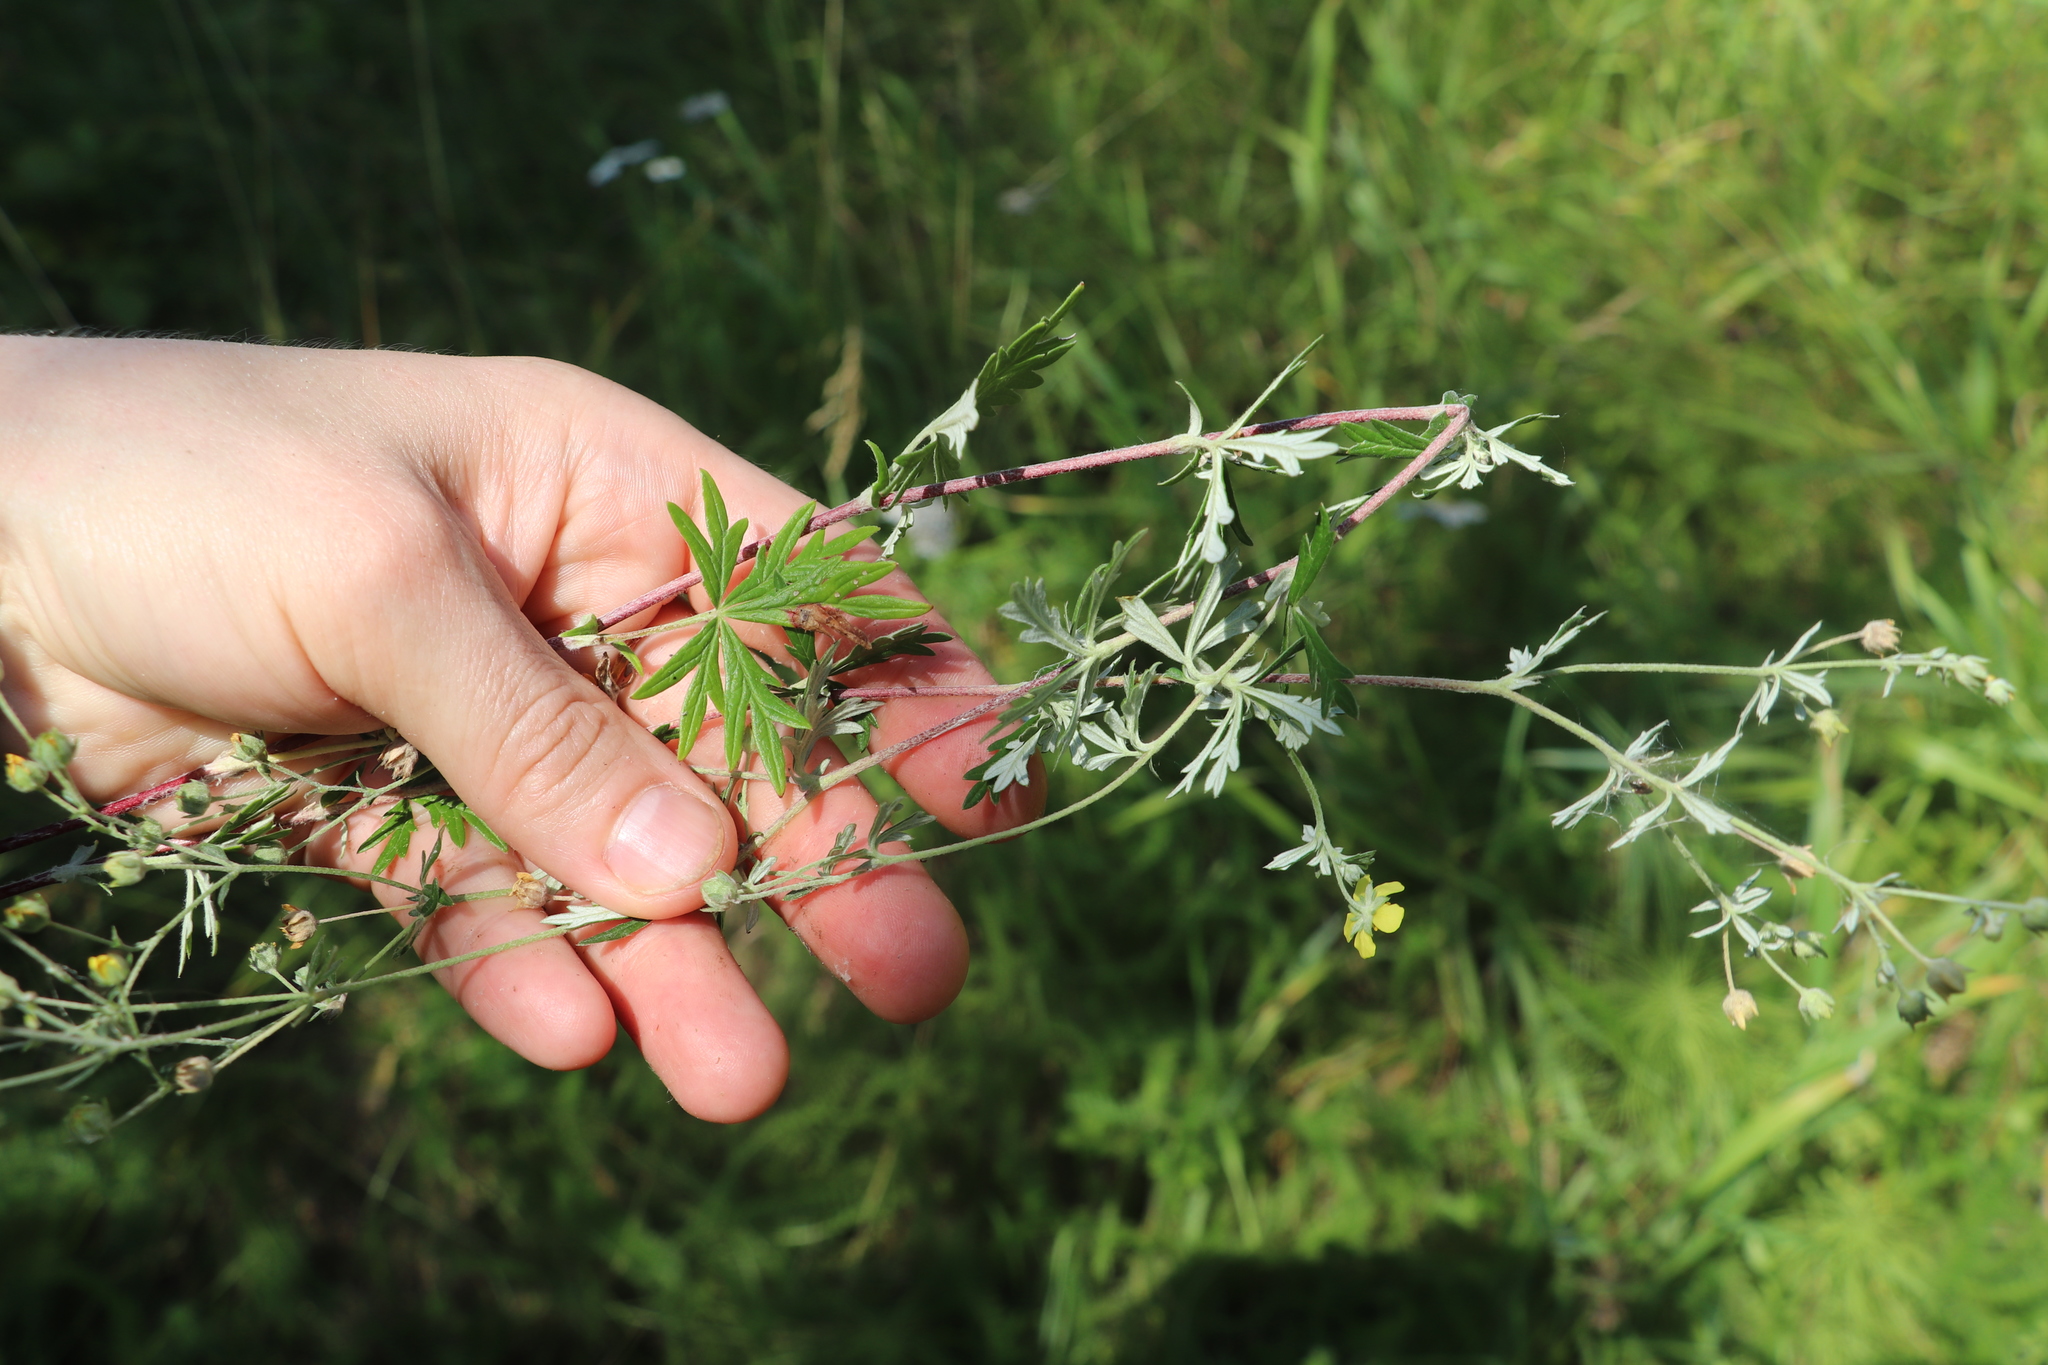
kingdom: Plantae
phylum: Tracheophyta
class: Magnoliopsida
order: Rosales
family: Rosaceae
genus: Potentilla
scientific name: Potentilla argentea
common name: Hoary cinquefoil
